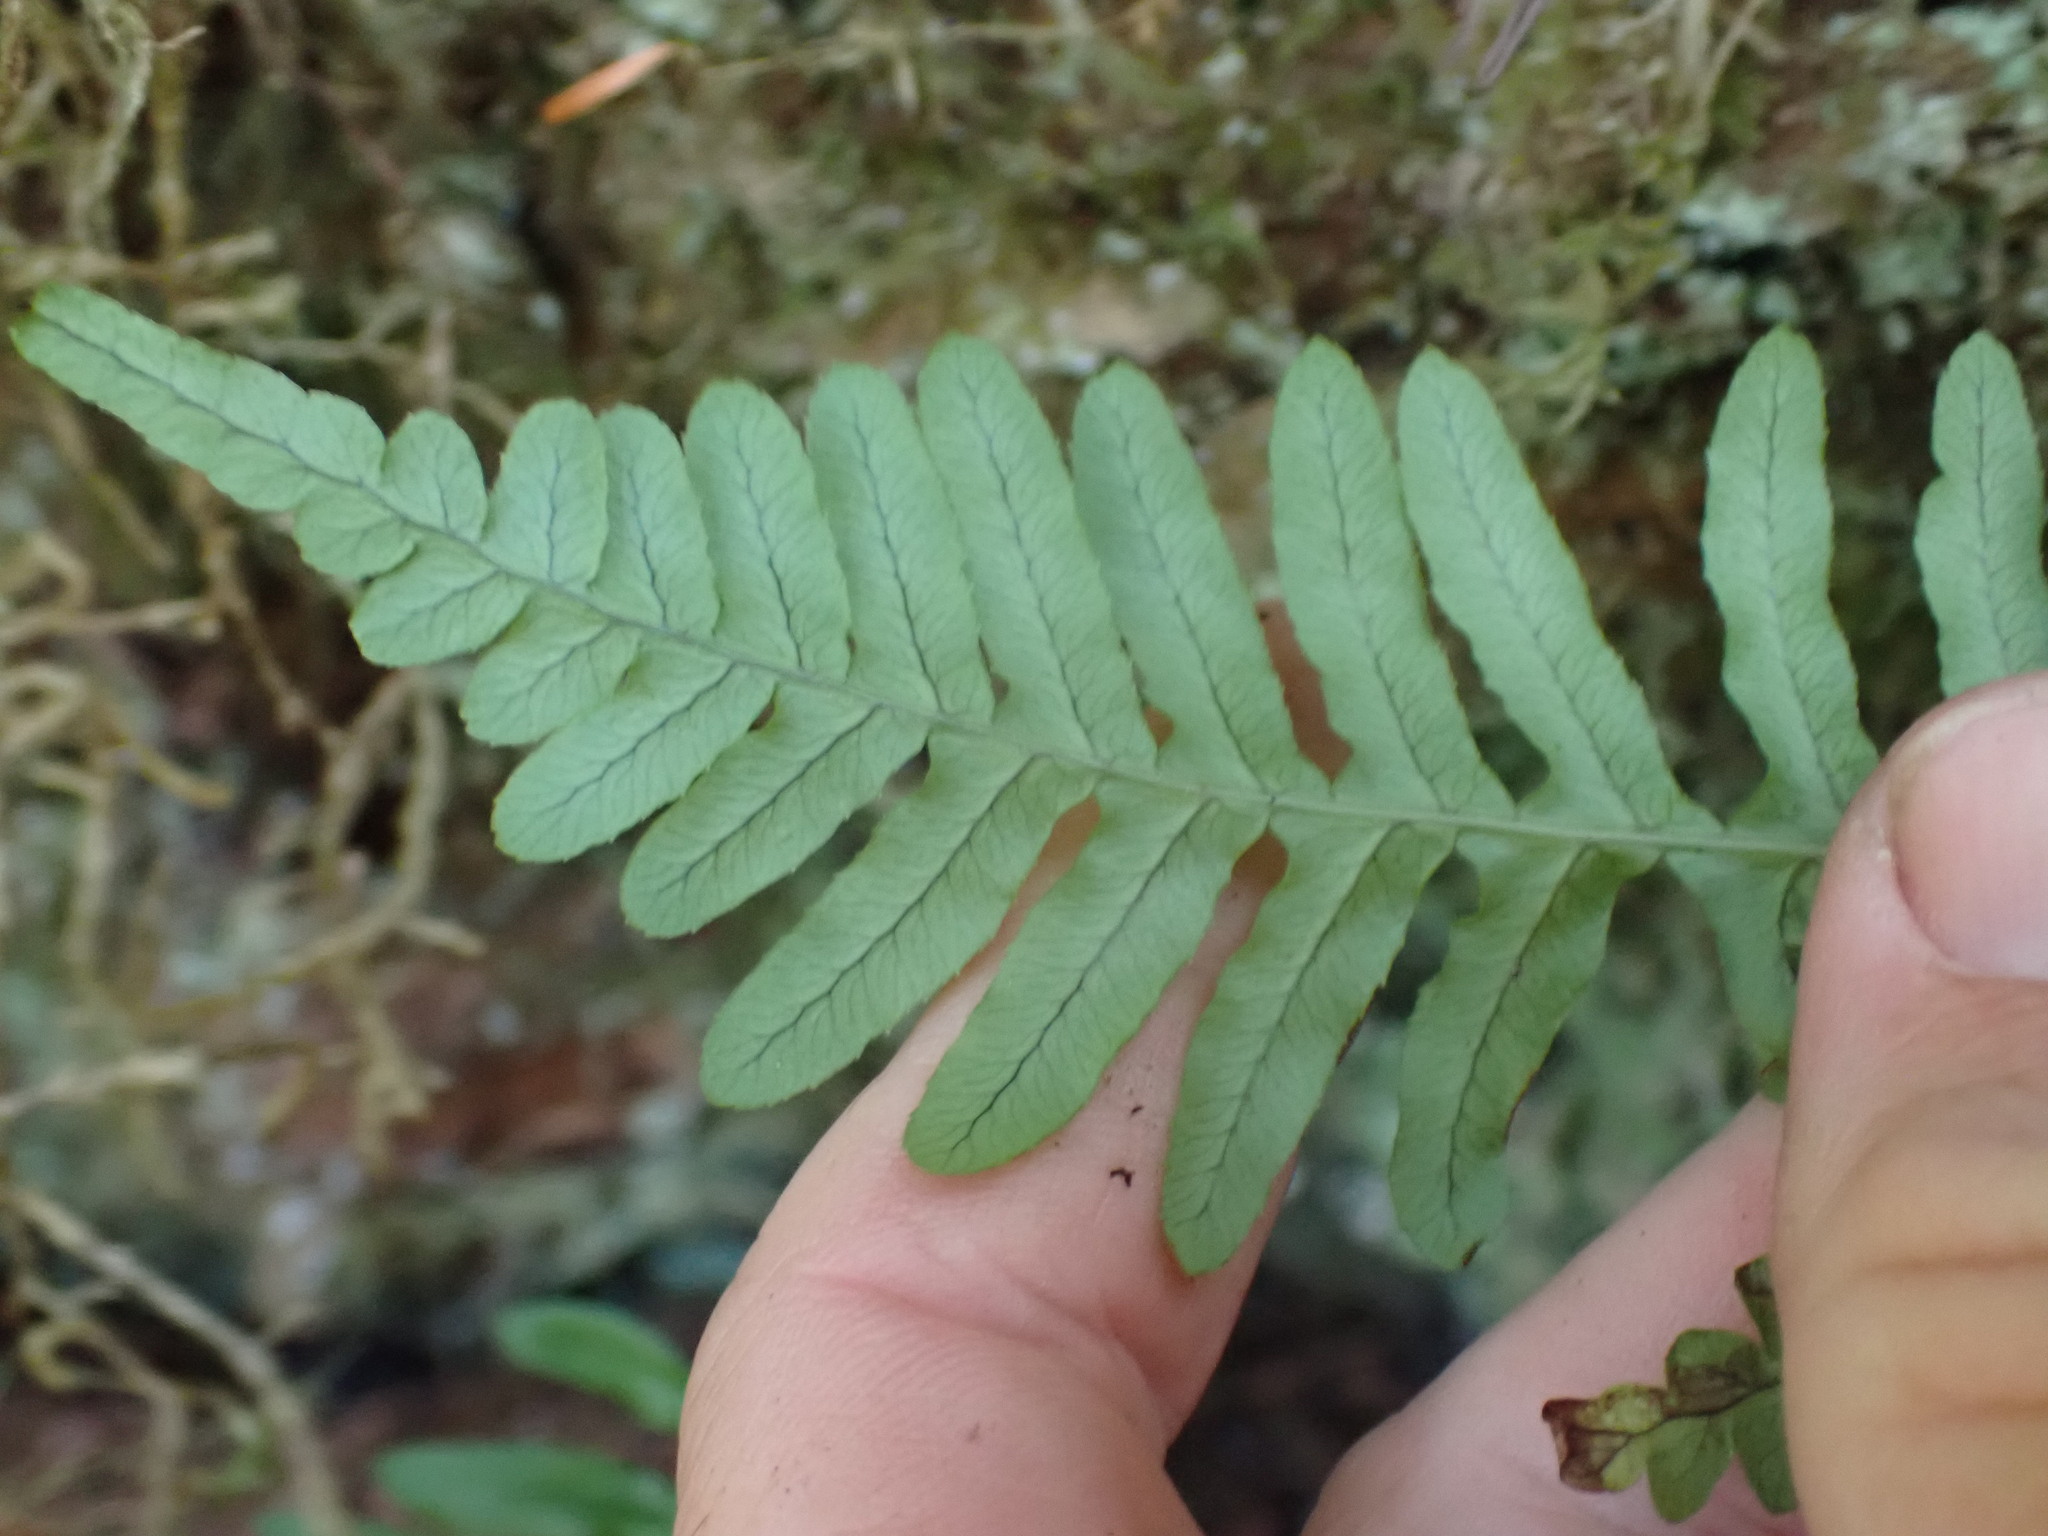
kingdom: Plantae
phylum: Tracheophyta
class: Polypodiopsida
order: Polypodiales
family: Polypodiaceae
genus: Polypodium
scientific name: Polypodium glycyrrhiza
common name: Licorice fern
